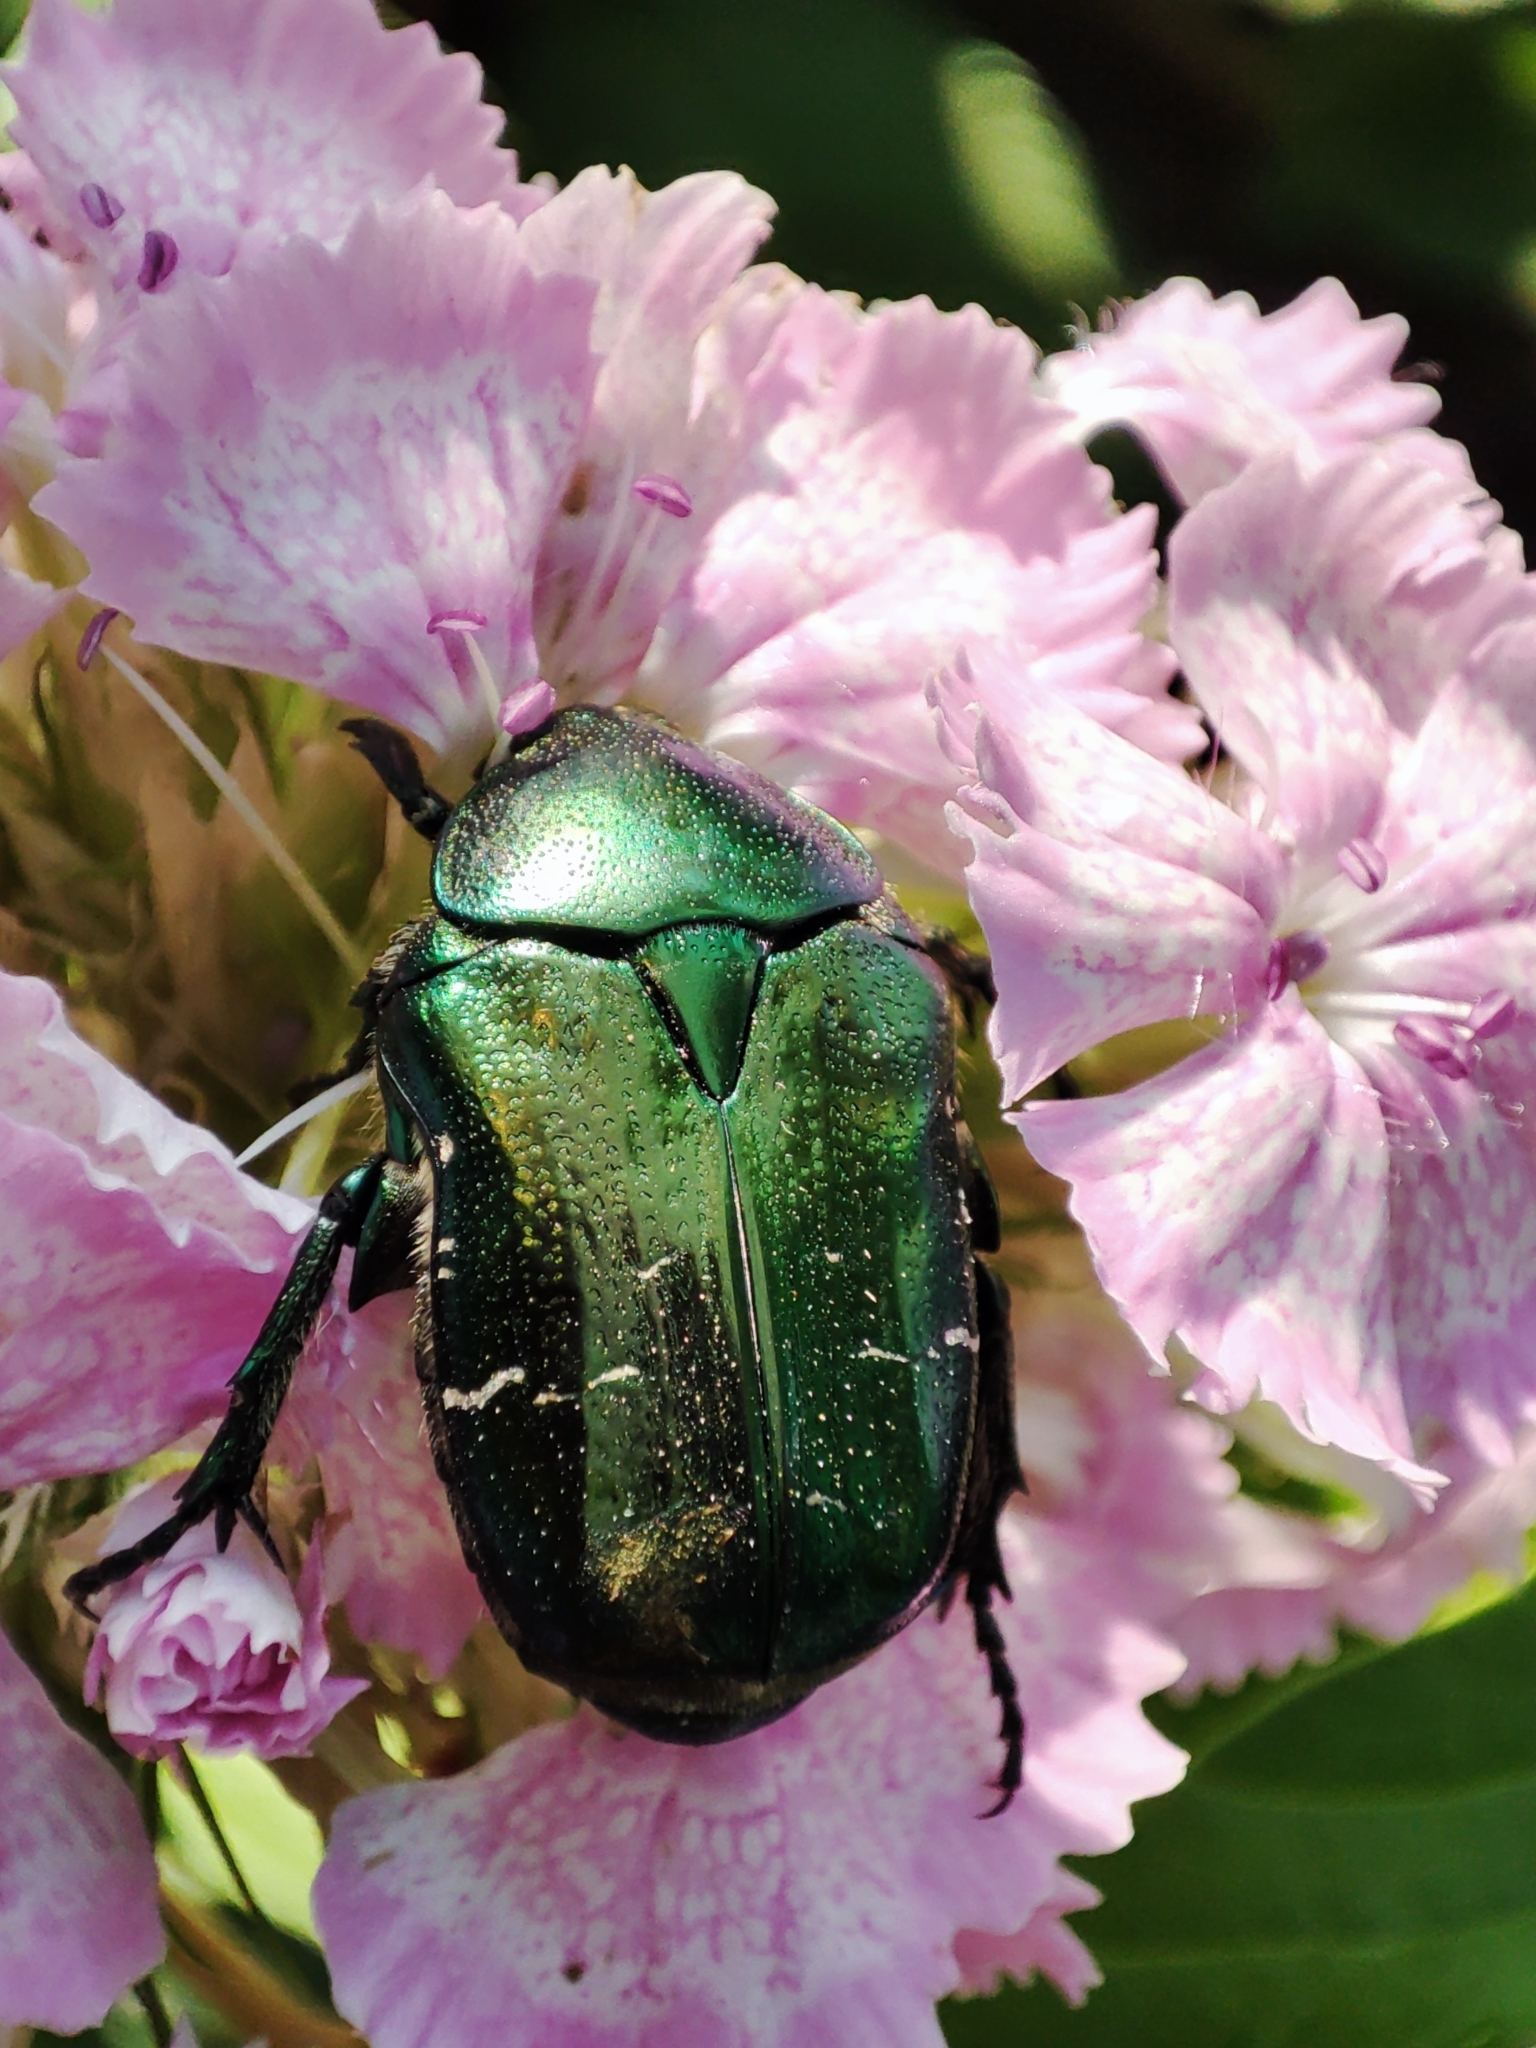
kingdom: Animalia
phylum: Arthropoda
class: Insecta
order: Coleoptera
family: Scarabaeidae
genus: Cetonia
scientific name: Cetonia aurata
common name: Rose chafer
